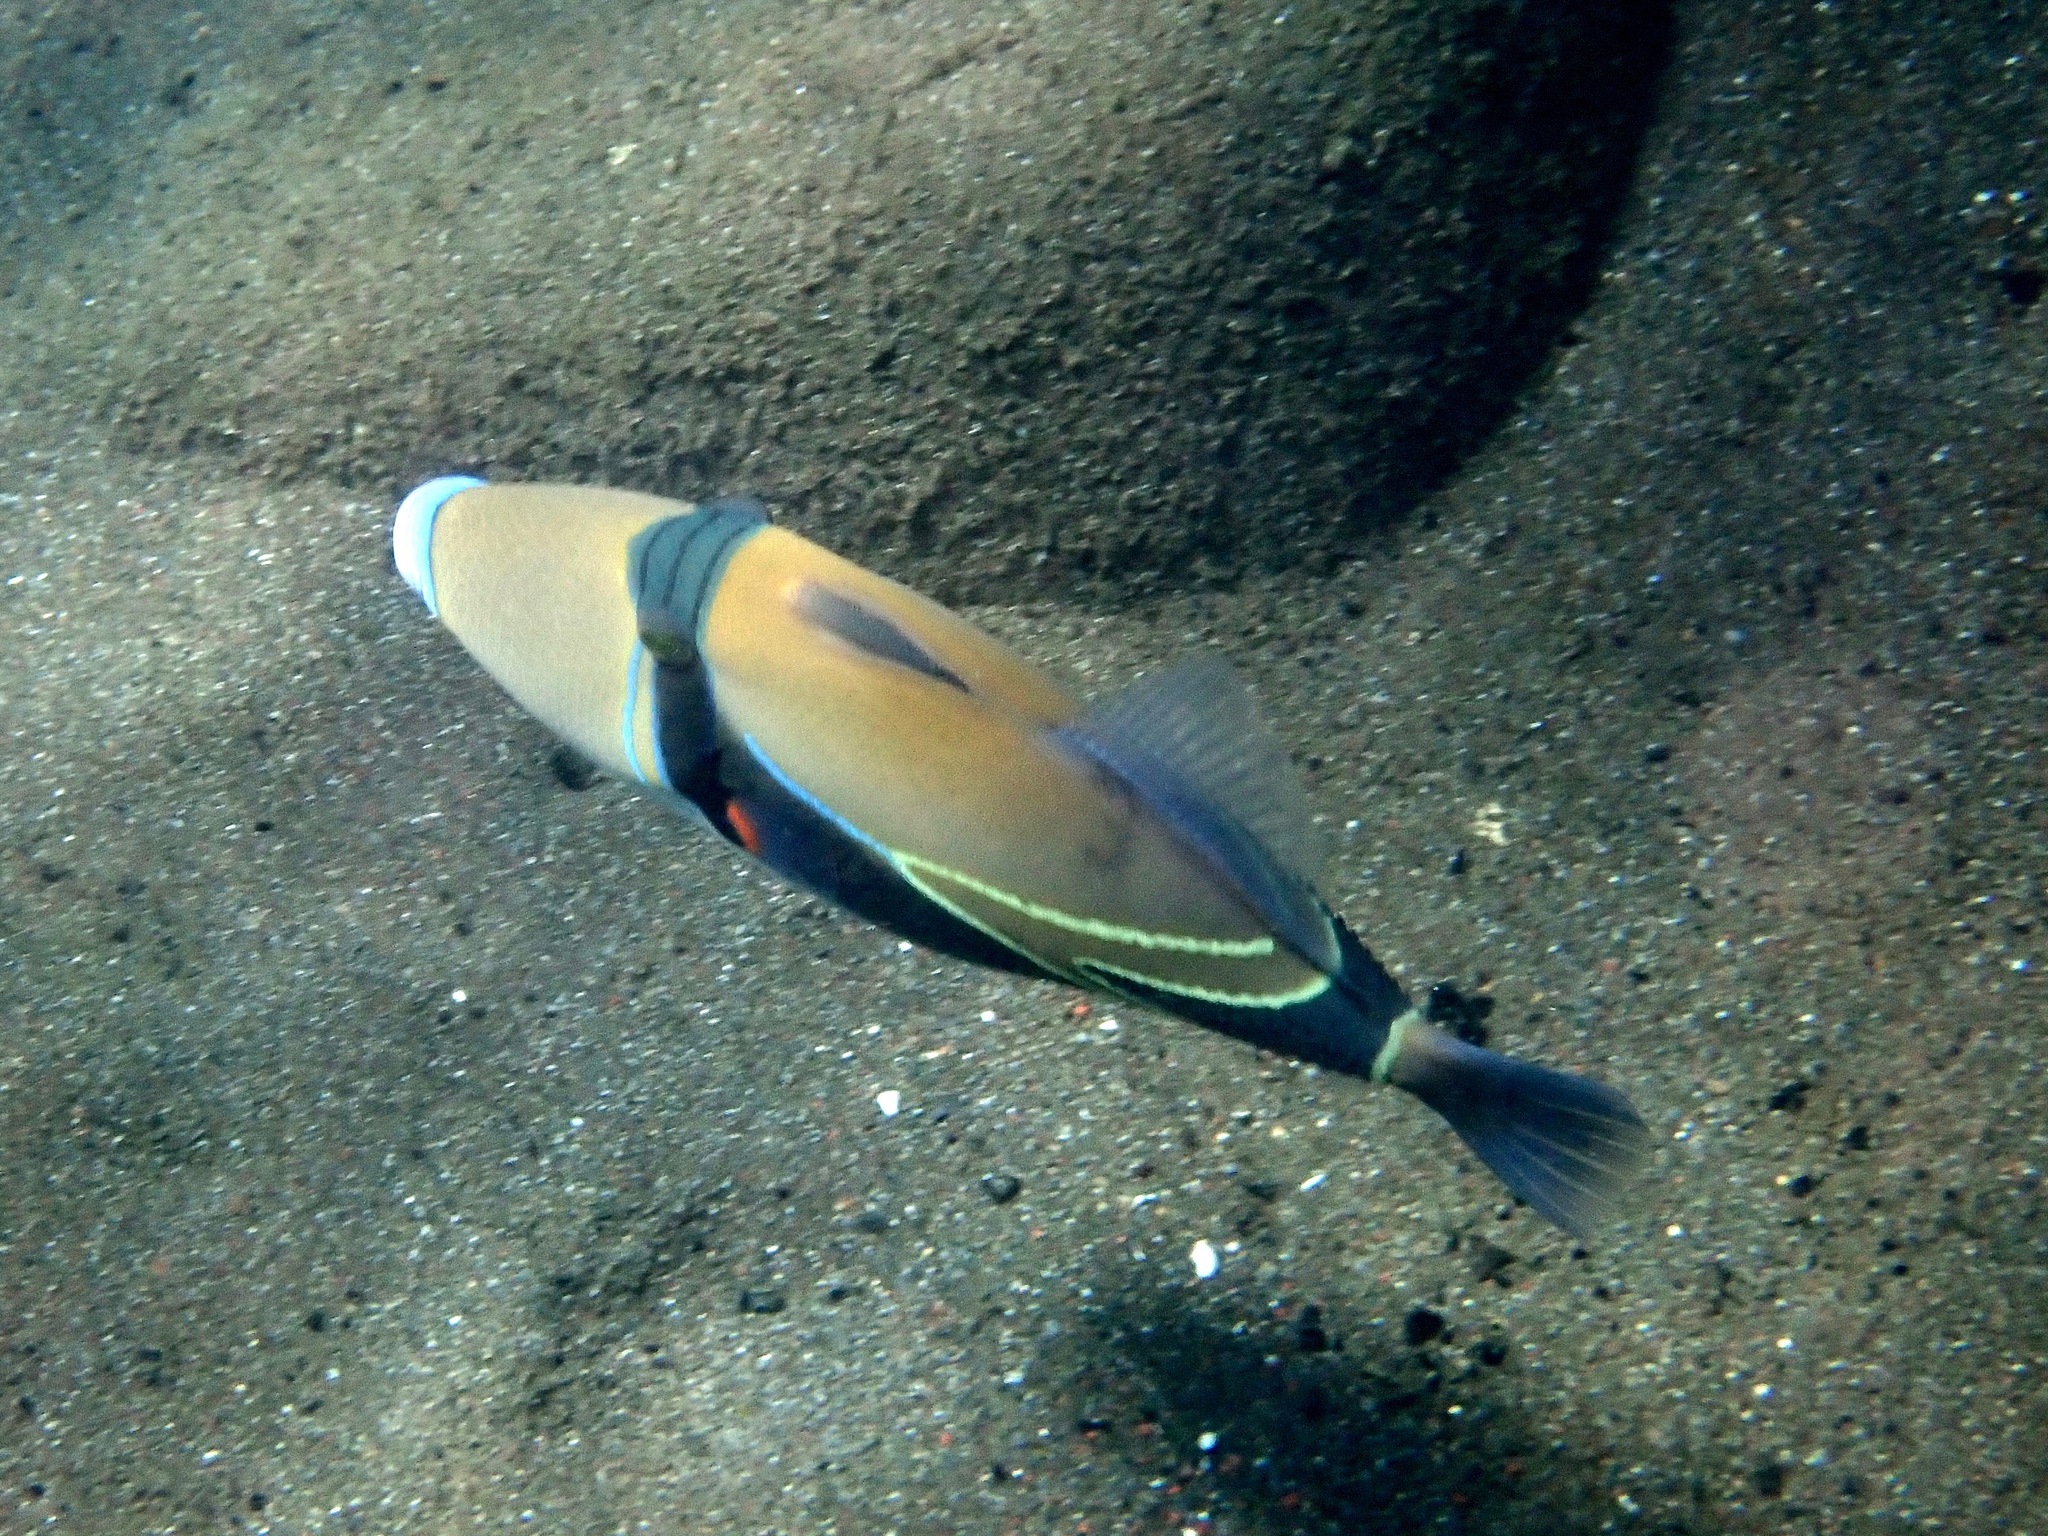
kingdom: Animalia
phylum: Chordata
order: Tetraodontiformes
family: Balistidae
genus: Rhinecanthus
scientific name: Rhinecanthus rectangulus
